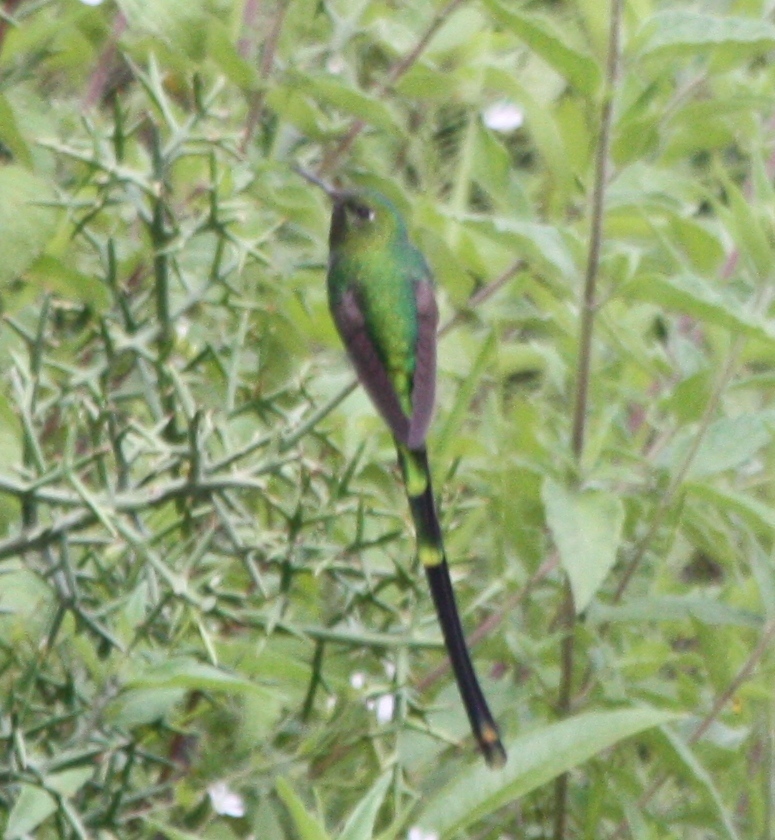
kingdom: Animalia
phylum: Chordata
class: Aves
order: Apodiformes
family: Trochilidae
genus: Lesbia
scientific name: Lesbia victoriae
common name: Black-tailed trainbearer
